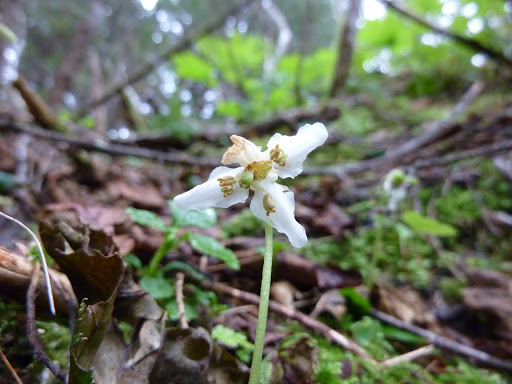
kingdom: Plantae
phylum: Tracheophyta
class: Magnoliopsida
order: Ericales
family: Ericaceae
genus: Moneses
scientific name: Moneses uniflora
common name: One-flowered wintergreen
